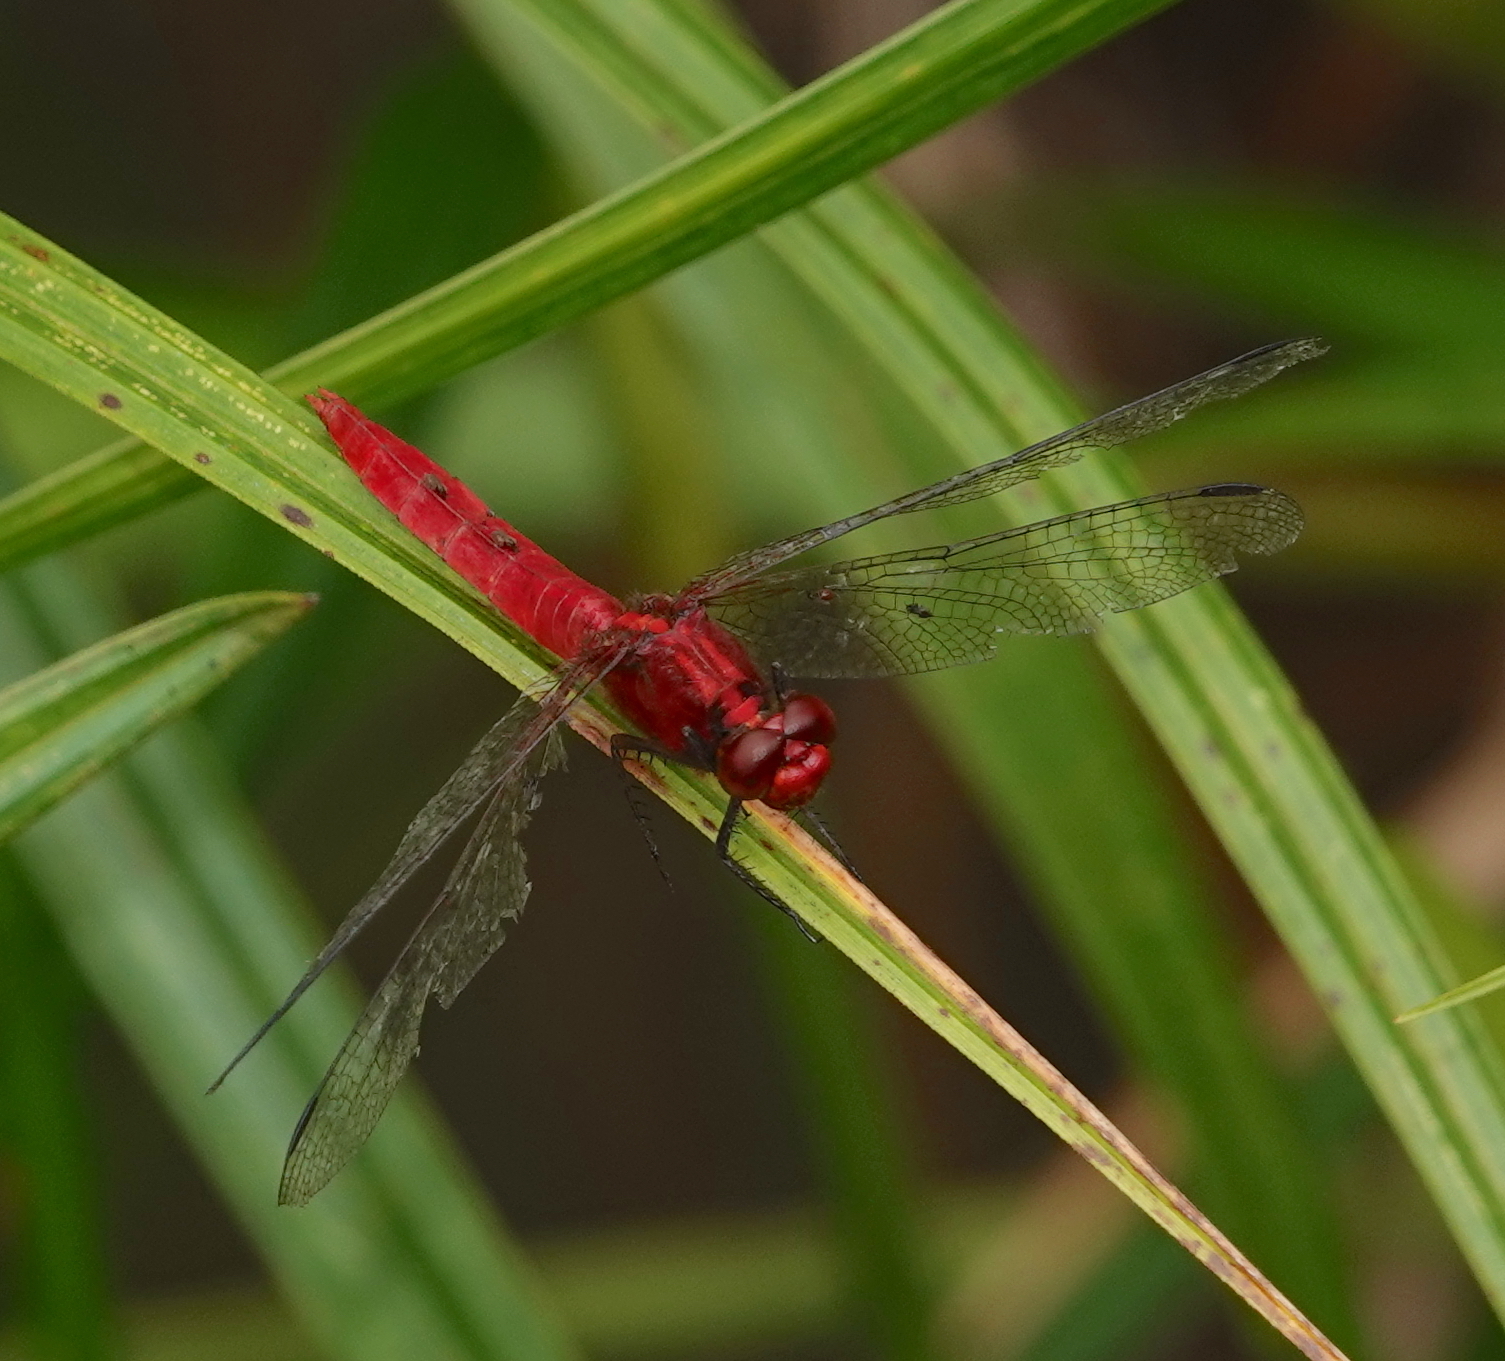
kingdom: Animalia
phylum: Arthropoda
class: Insecta
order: Odonata
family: Libellulidae
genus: Rhodothemis
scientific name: Rhodothemis rufa
